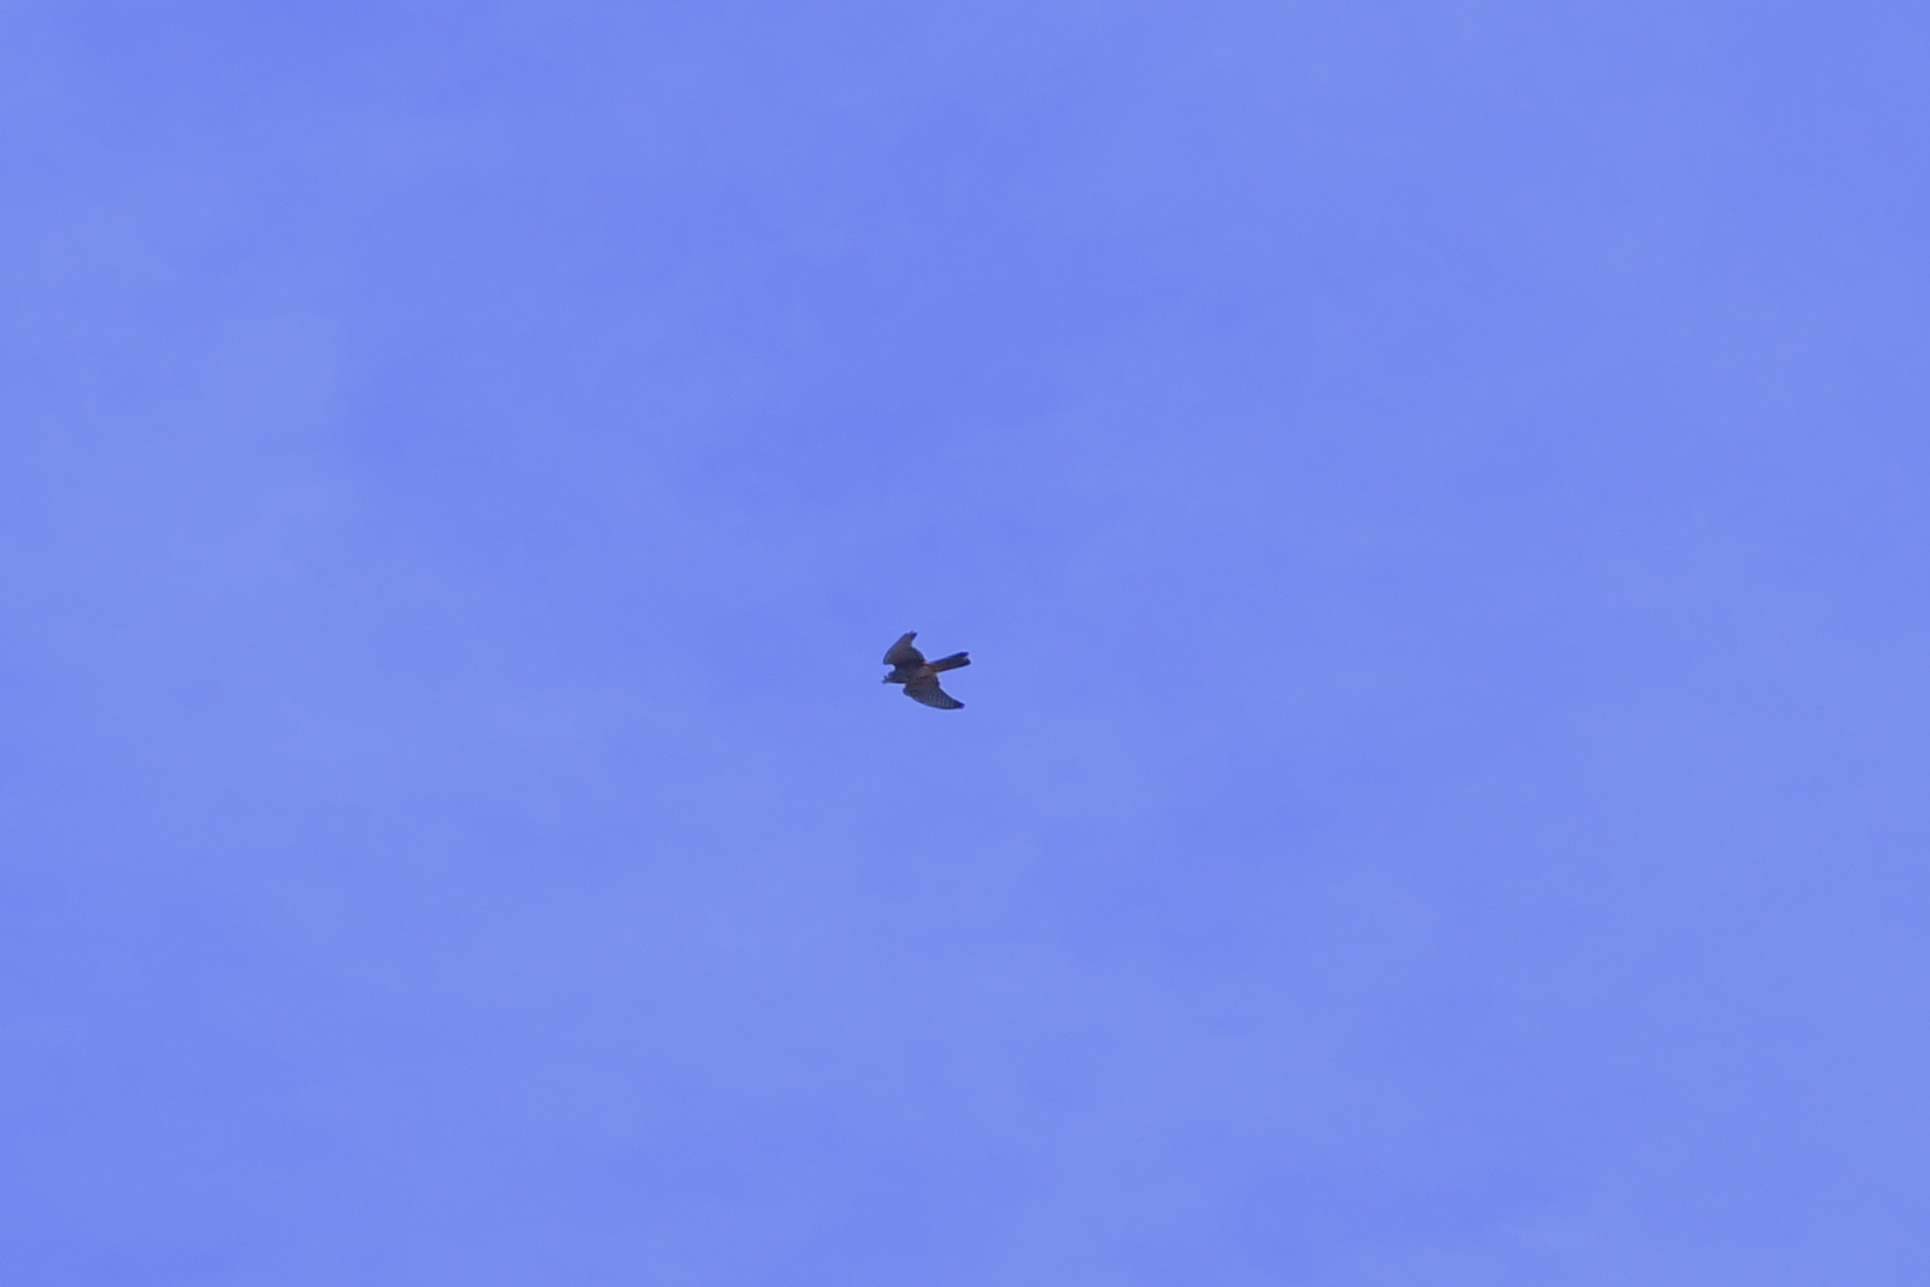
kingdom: Animalia
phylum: Chordata
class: Aves
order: Falconiformes
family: Falconidae
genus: Falco
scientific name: Falco novaeseelandiae
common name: New zealand falcon
